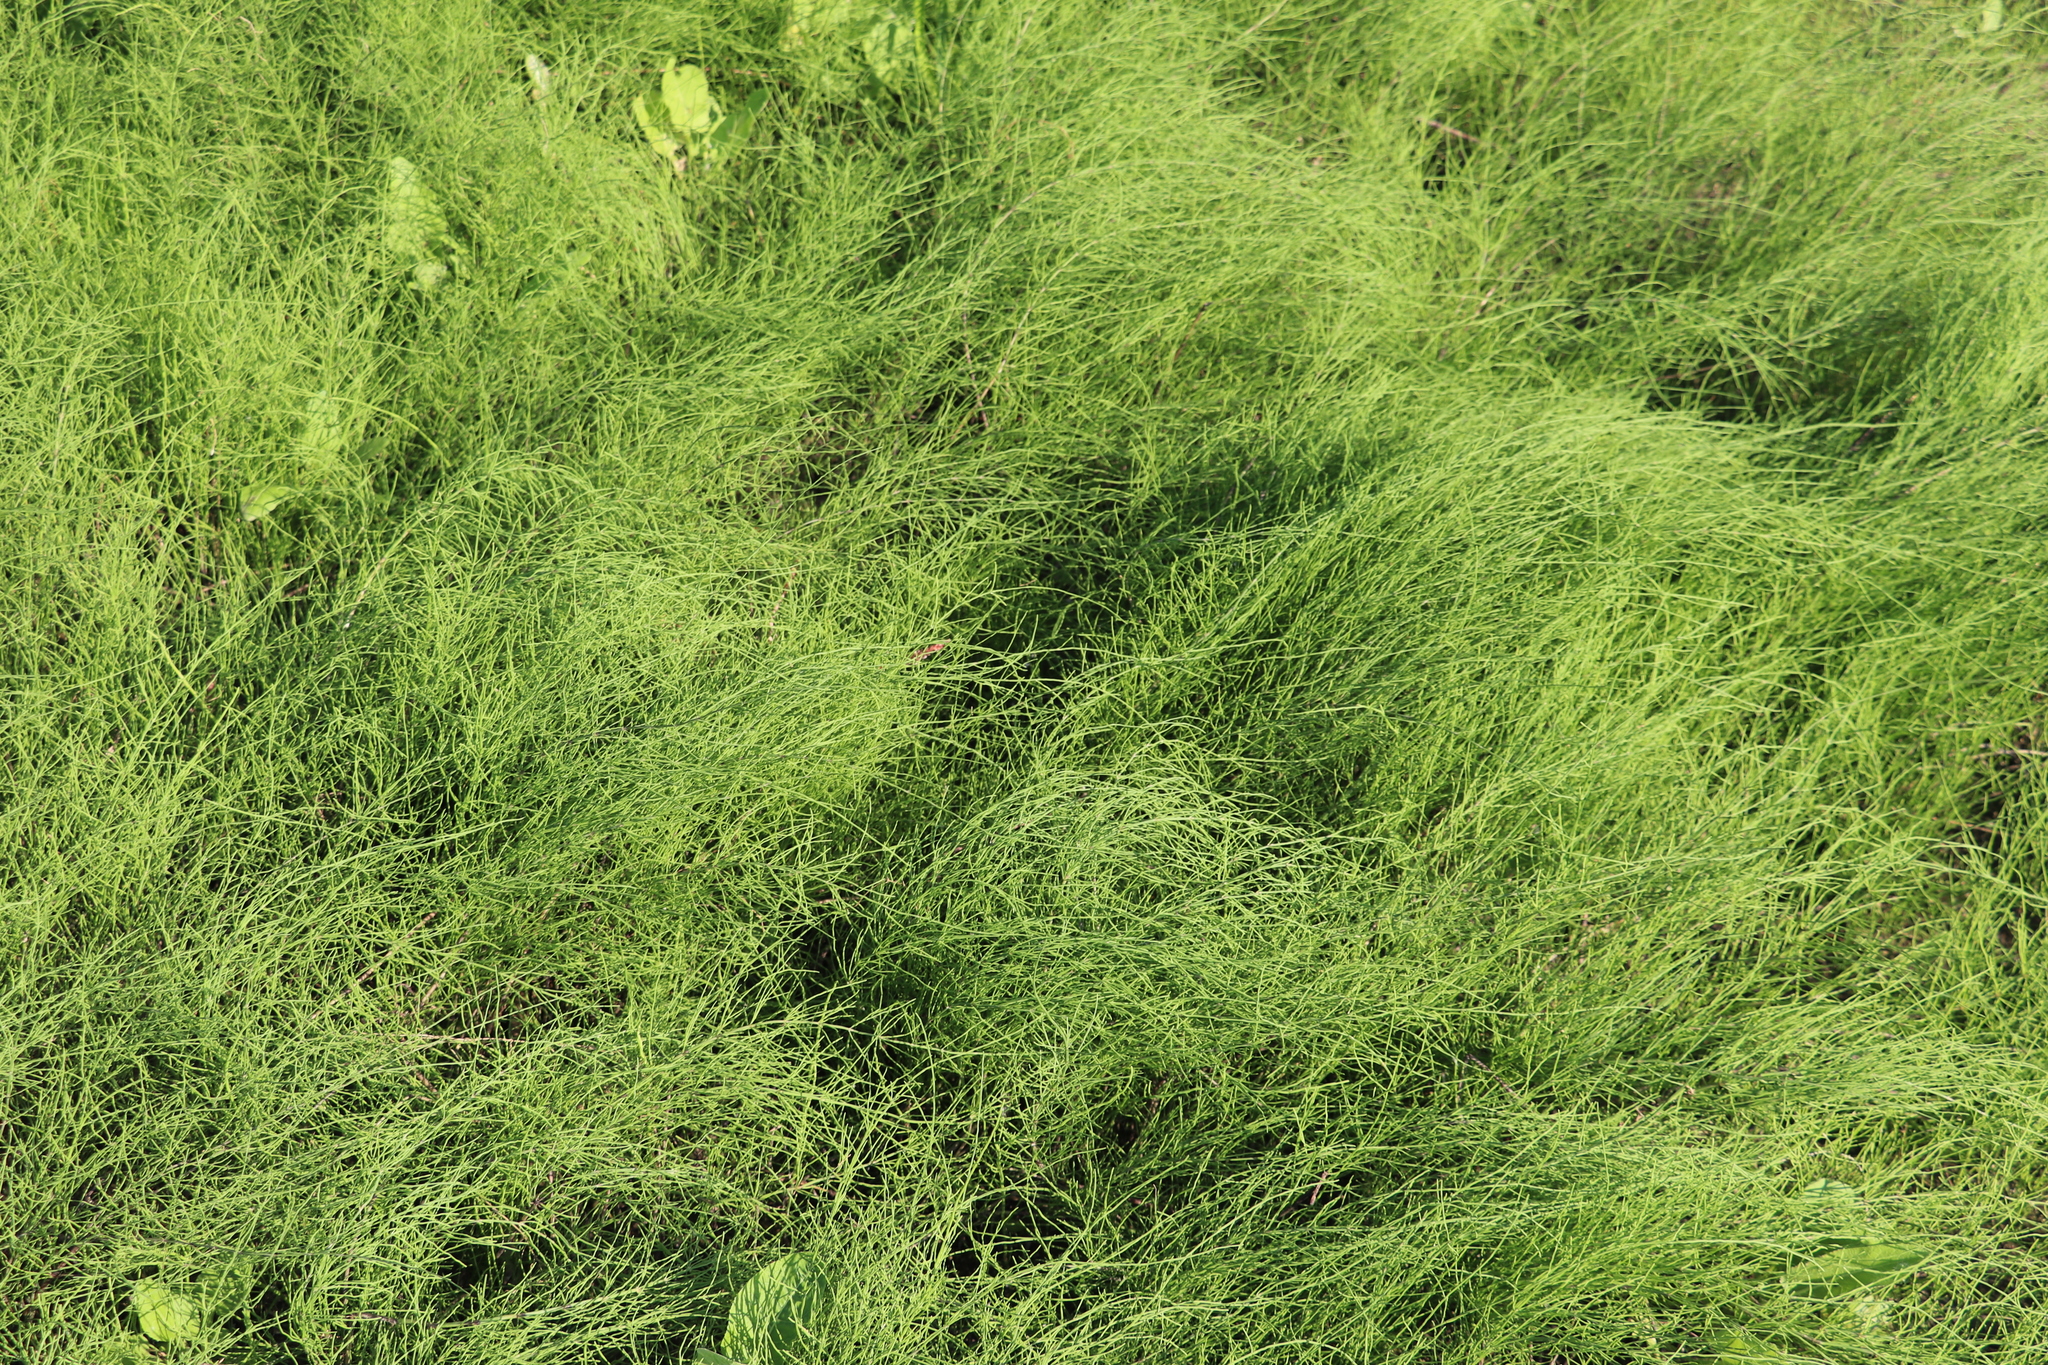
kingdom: Plantae
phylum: Tracheophyta
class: Polypodiopsida
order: Equisetales
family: Equisetaceae
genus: Equisetum
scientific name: Equisetum palustre
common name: Marsh horsetail
